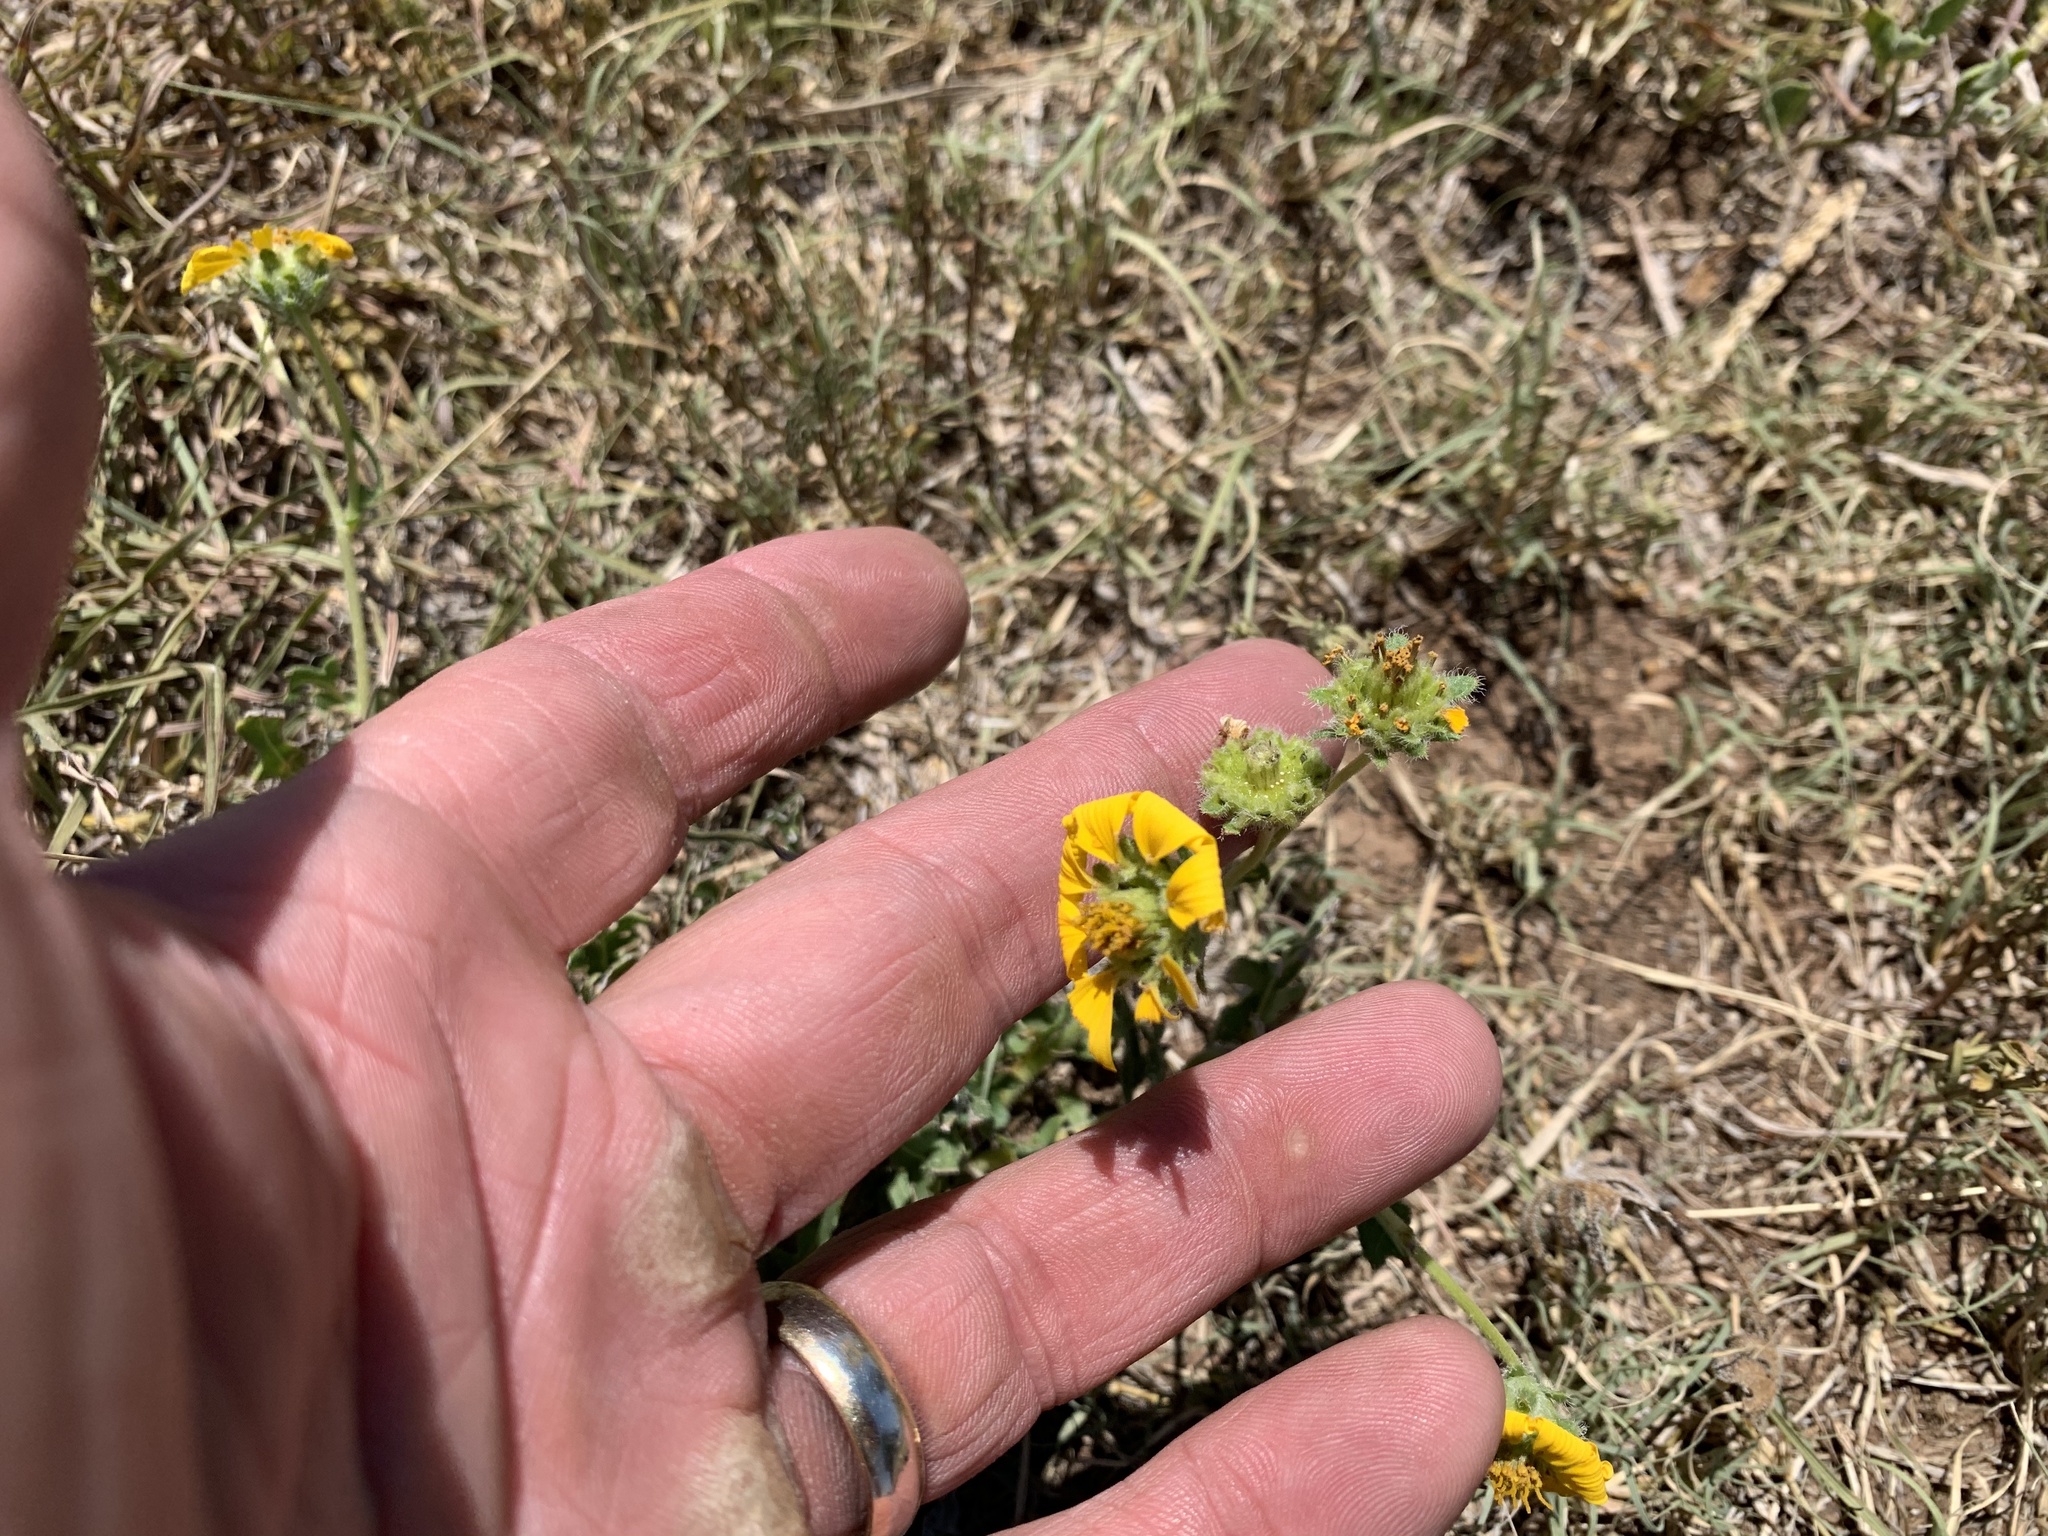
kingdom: Plantae
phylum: Tracheophyta
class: Magnoliopsida
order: Asterales
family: Asteraceae
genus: Engelmannia
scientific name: Engelmannia peristenia
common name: Engelmann's daisy
